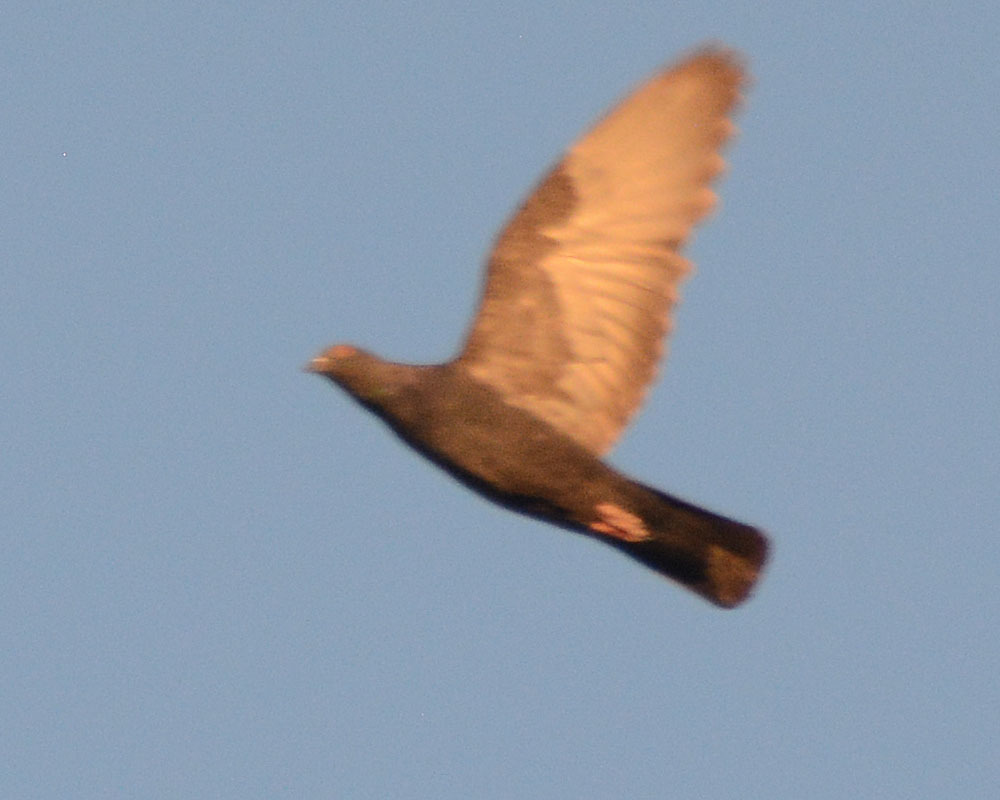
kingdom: Animalia
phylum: Chordata
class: Aves
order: Columbiformes
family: Columbidae
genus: Columba
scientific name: Columba livia
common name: Rock pigeon
